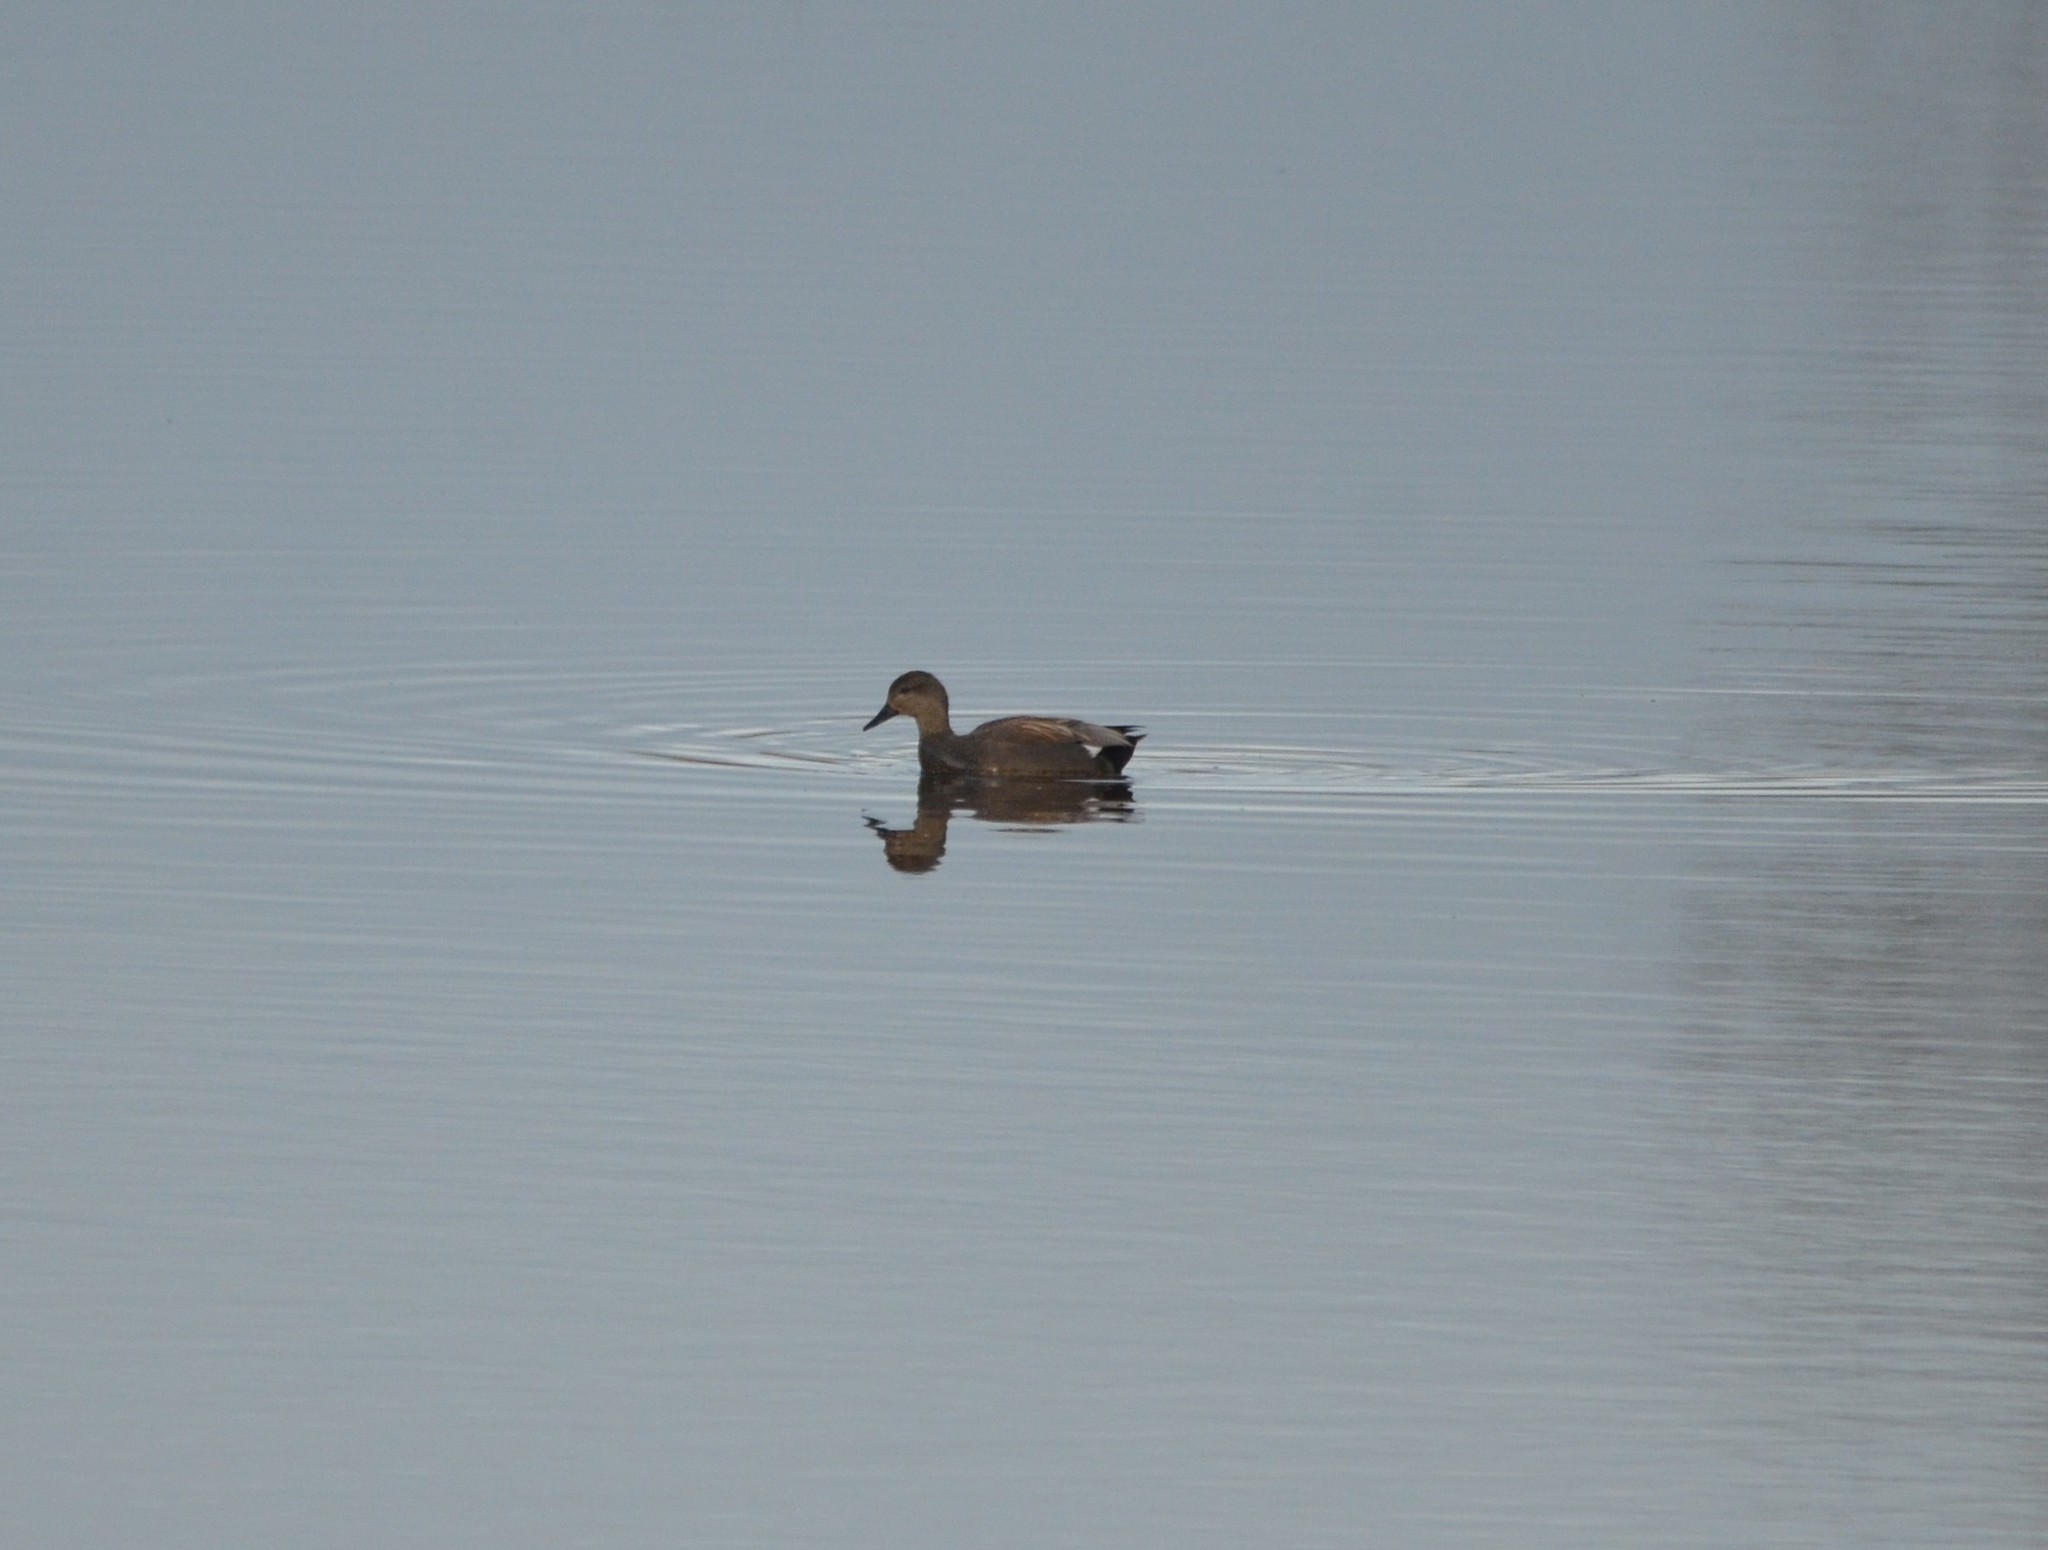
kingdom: Animalia
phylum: Chordata
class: Aves
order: Anseriformes
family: Anatidae
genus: Mareca
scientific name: Mareca strepera
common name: Gadwall
